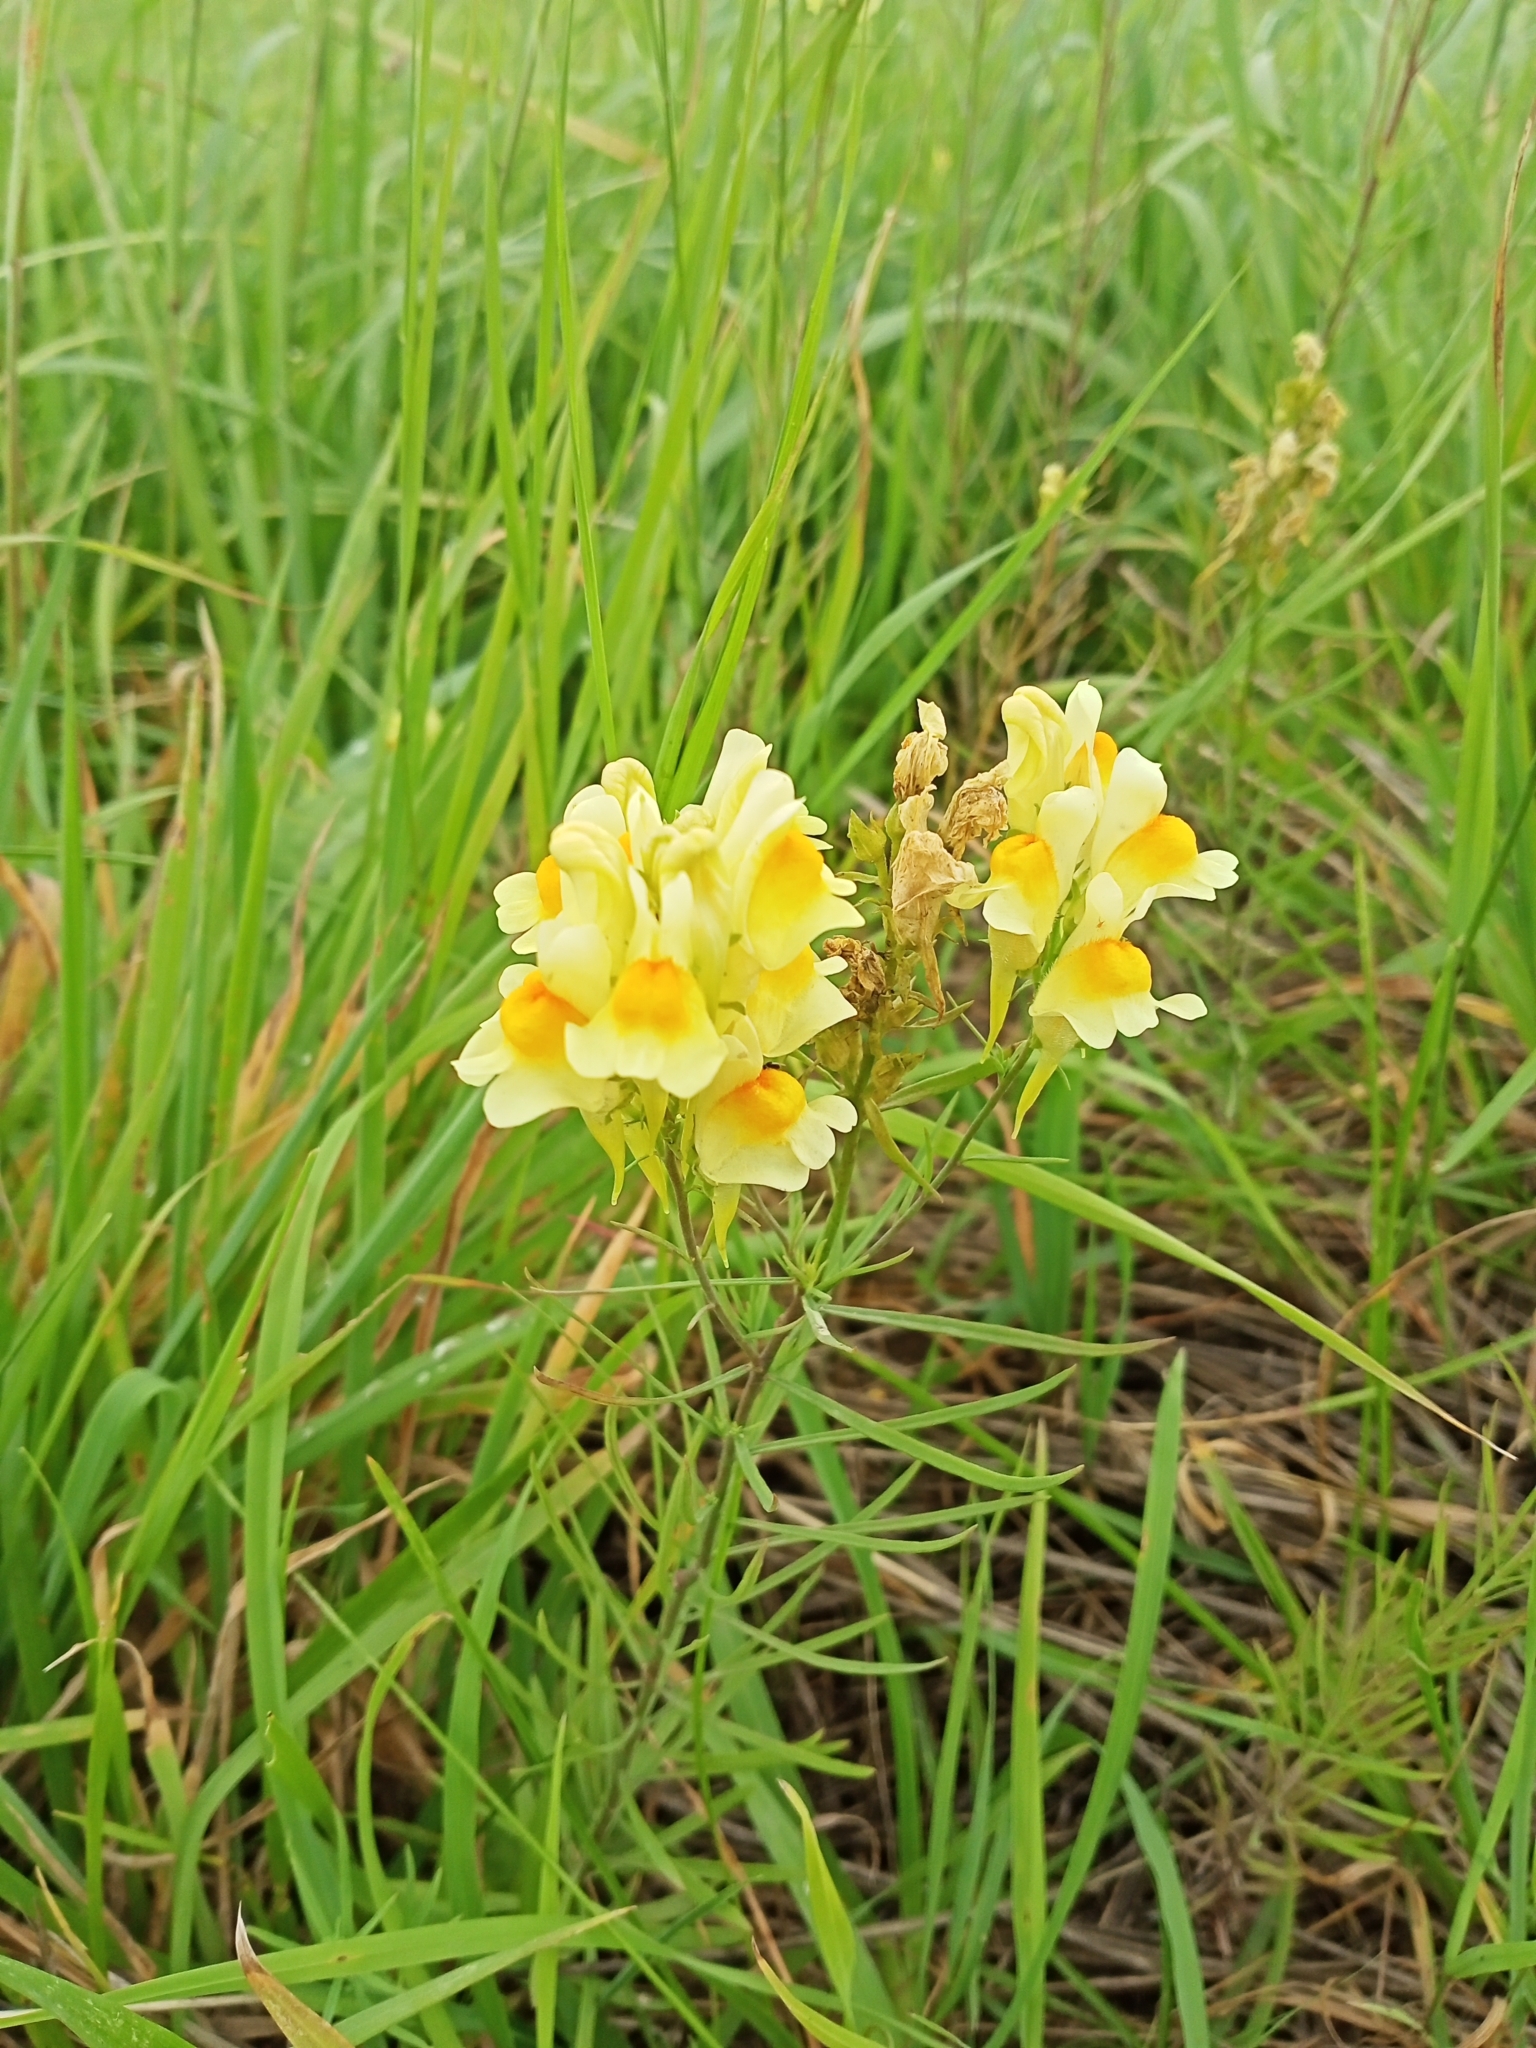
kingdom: Plantae
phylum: Tracheophyta
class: Magnoliopsida
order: Lamiales
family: Plantaginaceae
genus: Linaria
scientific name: Linaria vulgaris
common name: Butter and eggs
